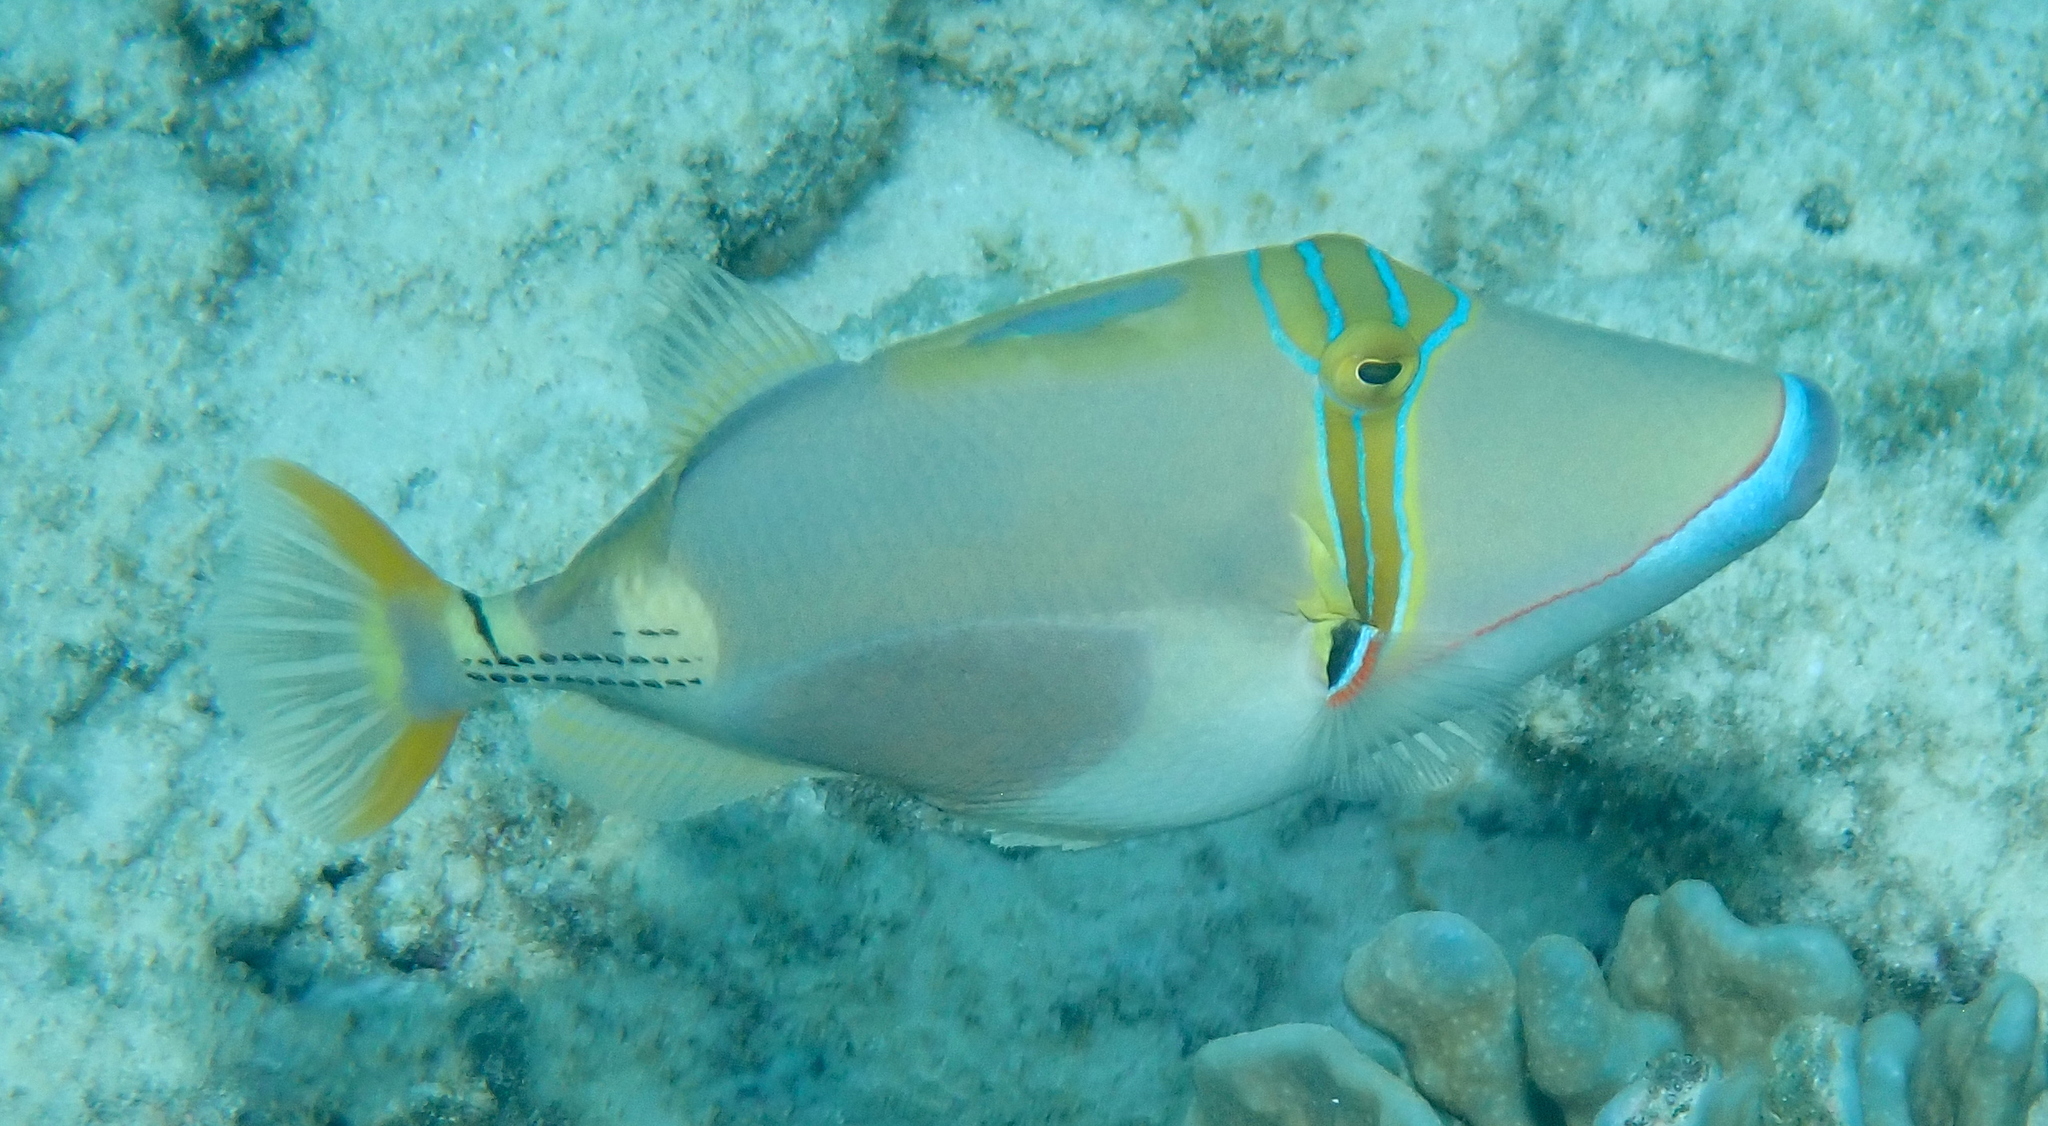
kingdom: Animalia
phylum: Chordata
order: Tetraodontiformes
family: Balistidae
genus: Rhinecanthus
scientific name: Rhinecanthus verrucosus
